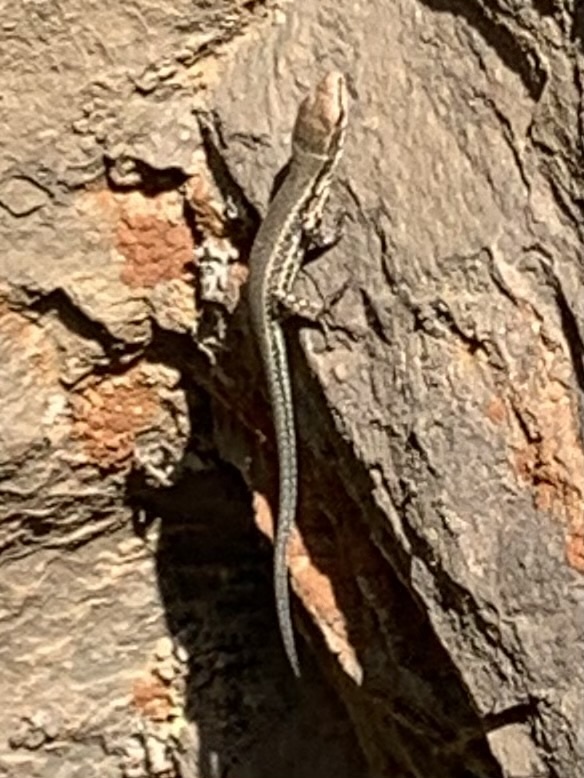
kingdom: Animalia
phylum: Chordata
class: Squamata
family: Lacertidae
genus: Podarcis
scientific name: Podarcis muralis
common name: Common wall lizard
